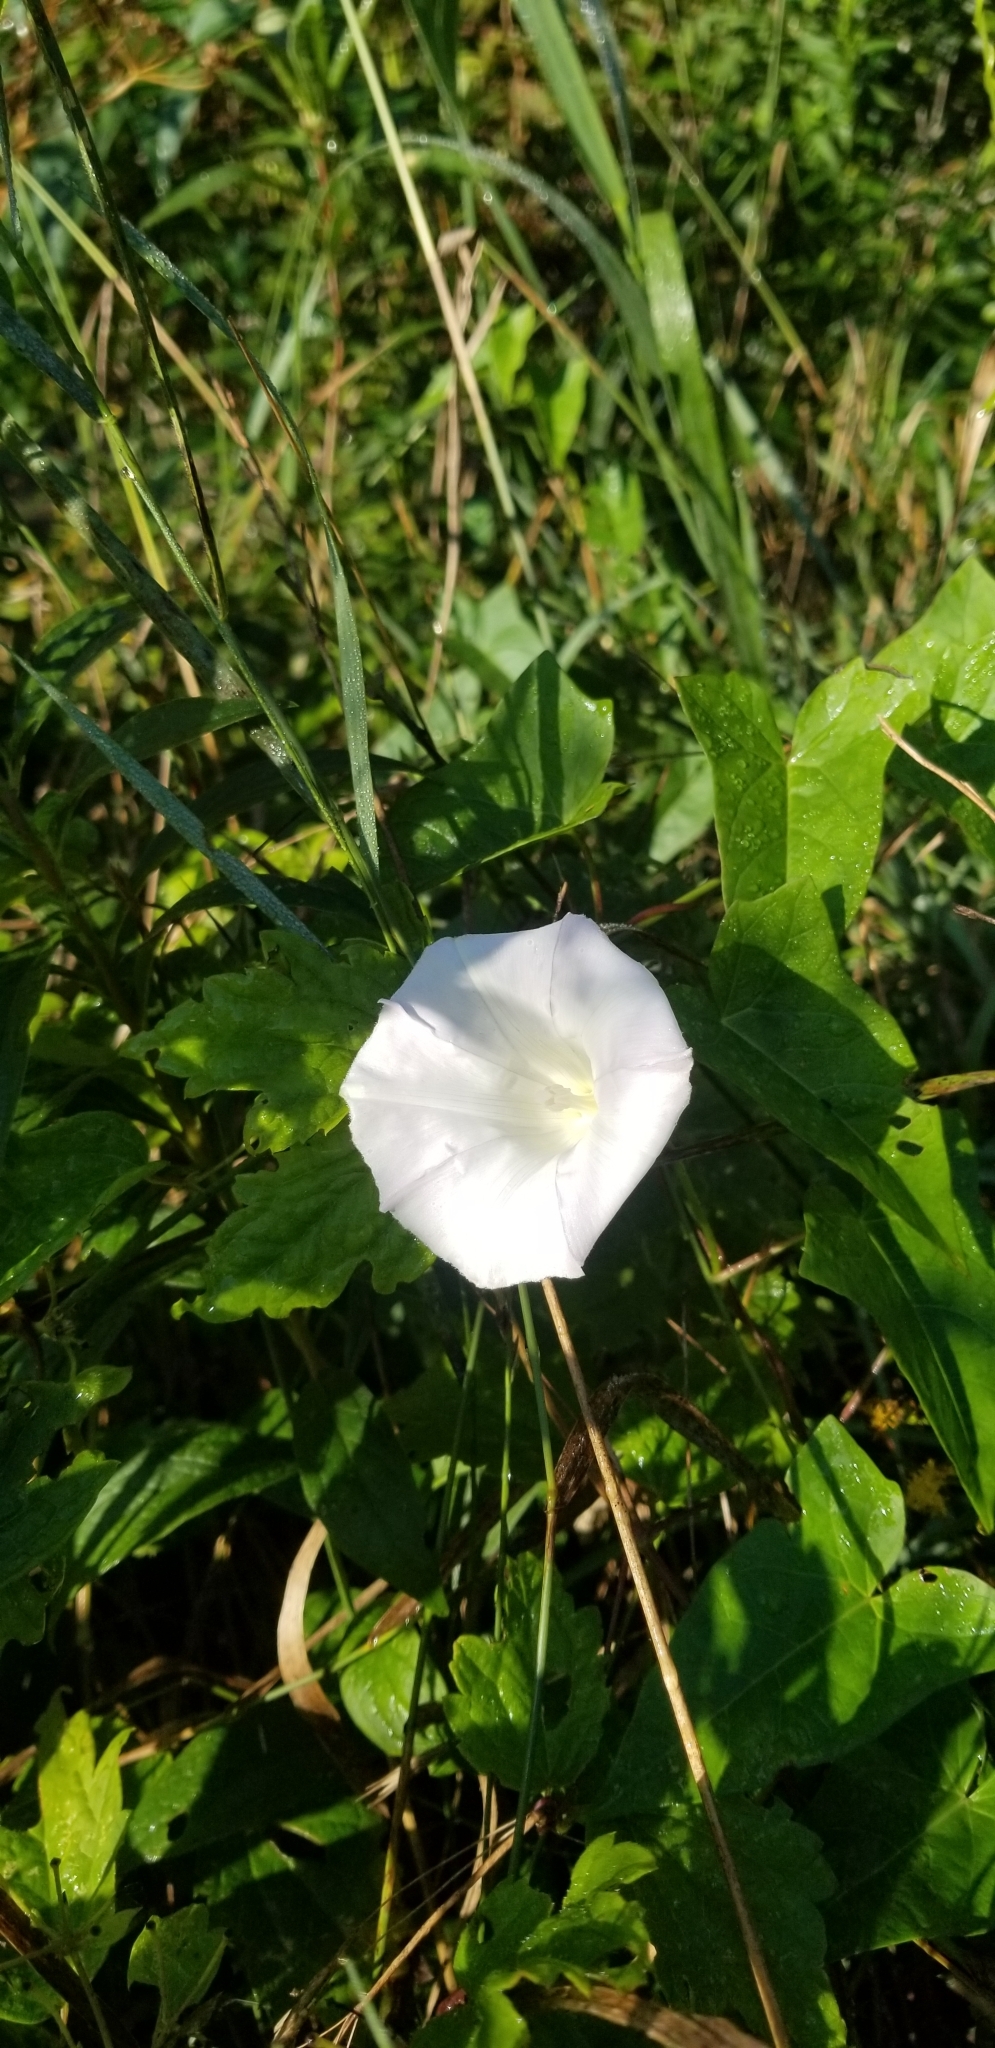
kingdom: Plantae
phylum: Tracheophyta
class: Magnoliopsida
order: Solanales
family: Convolvulaceae
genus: Calystegia
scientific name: Calystegia sepium
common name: Hedge bindweed
